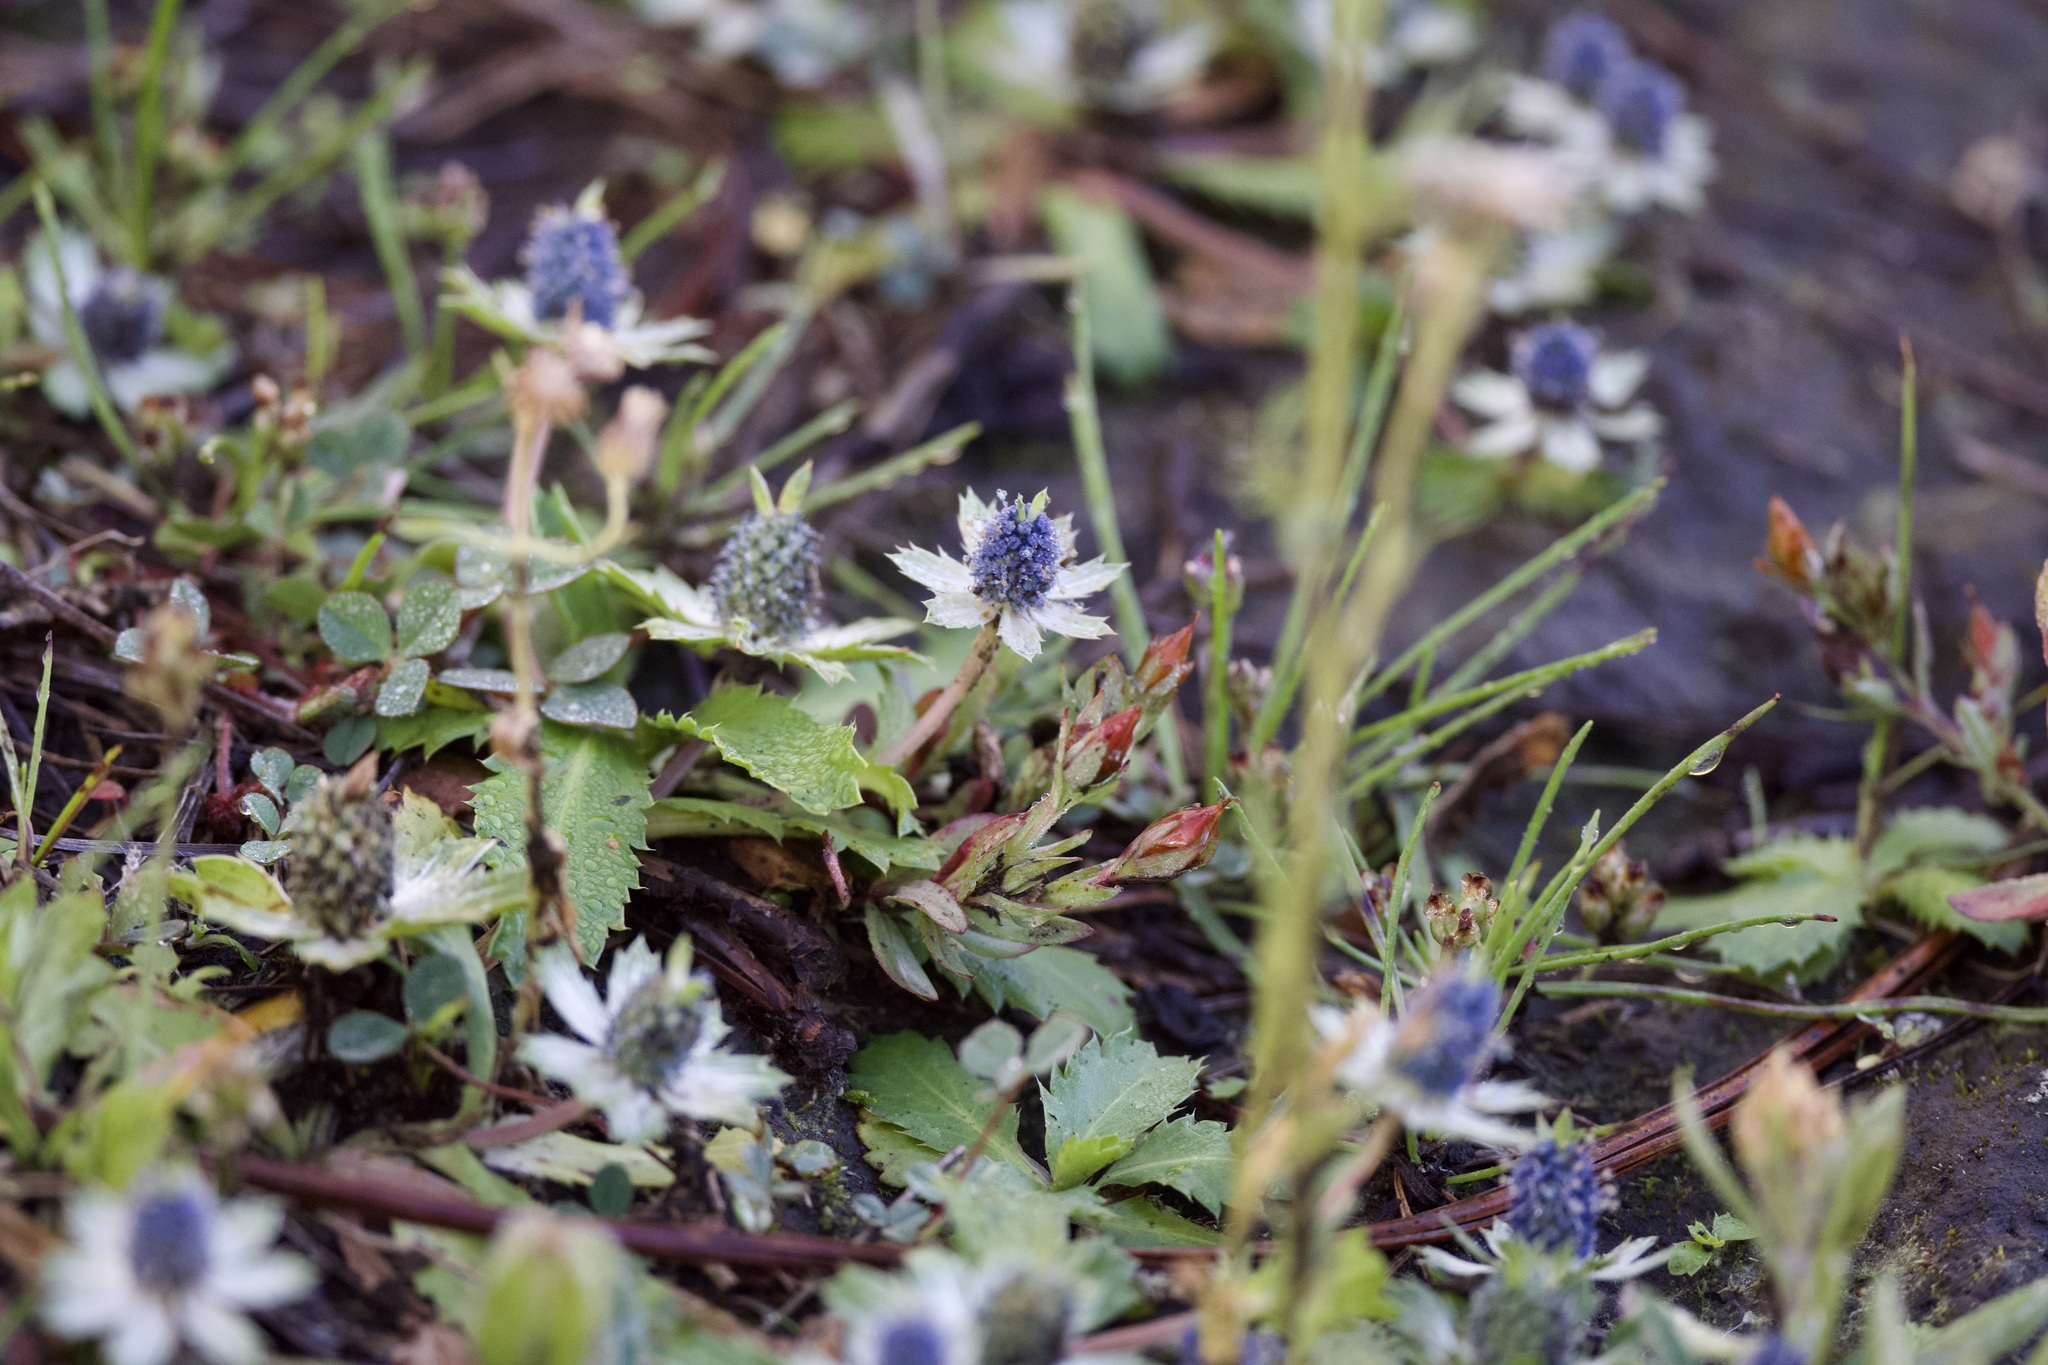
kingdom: Plantae
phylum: Tracheophyta
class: Magnoliopsida
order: Apiales
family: Apiaceae
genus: Eryngium
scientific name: Eryngium carlinae
